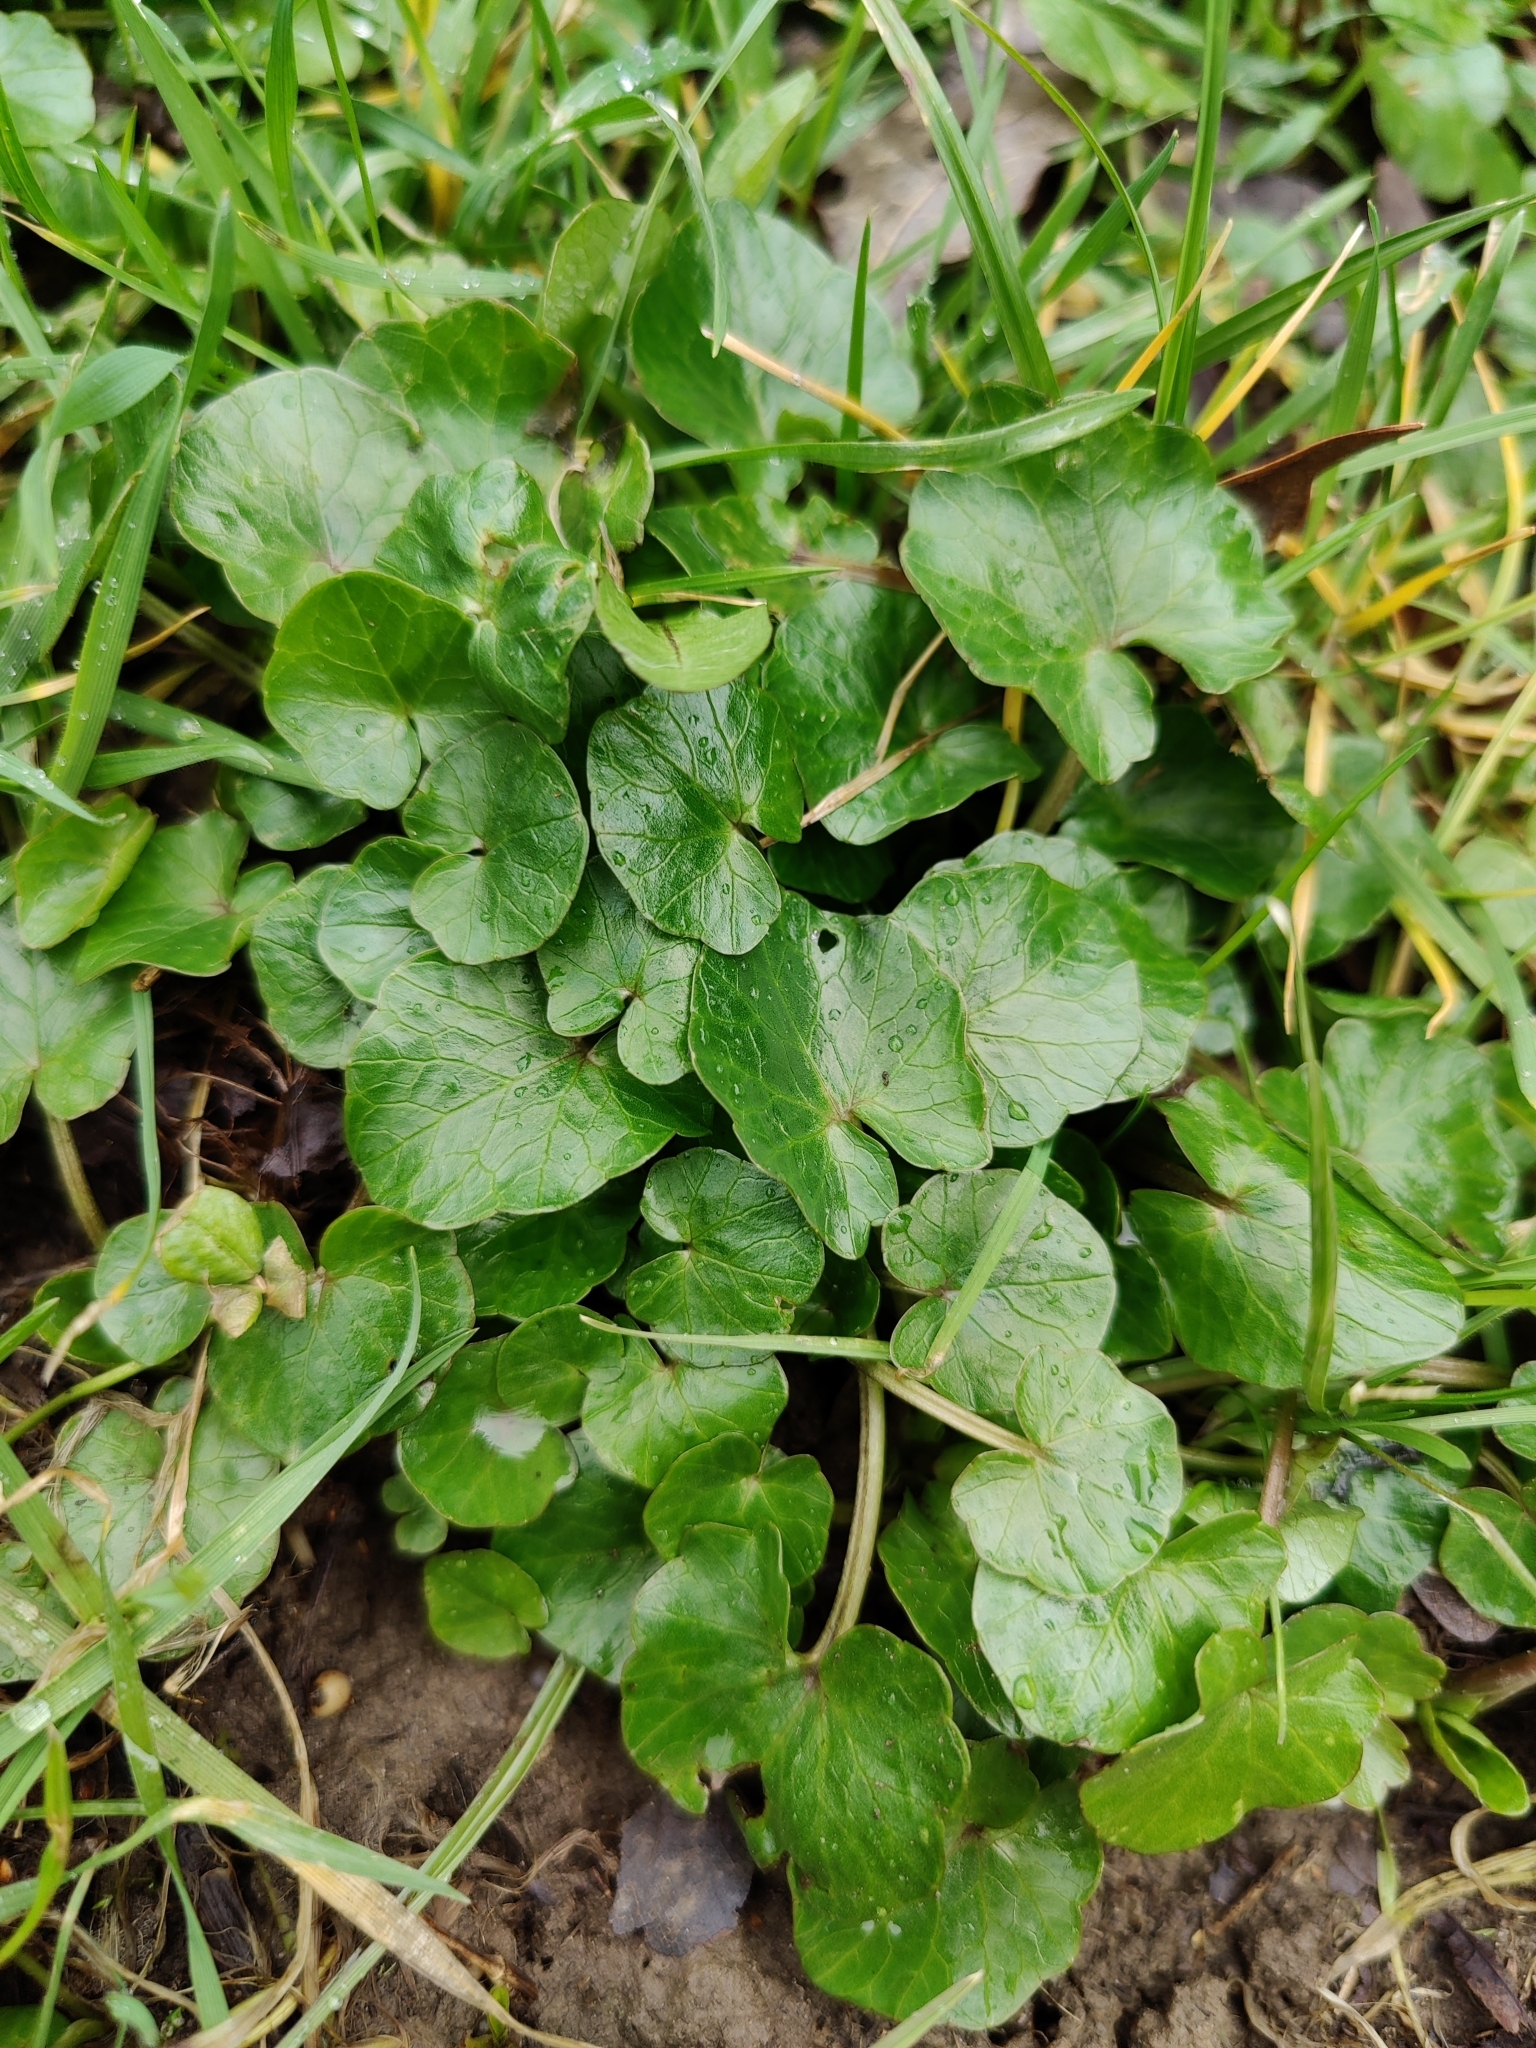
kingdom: Plantae
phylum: Tracheophyta
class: Magnoliopsida
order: Ranunculales
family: Ranunculaceae
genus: Ficaria
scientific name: Ficaria verna
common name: Lesser celandine
